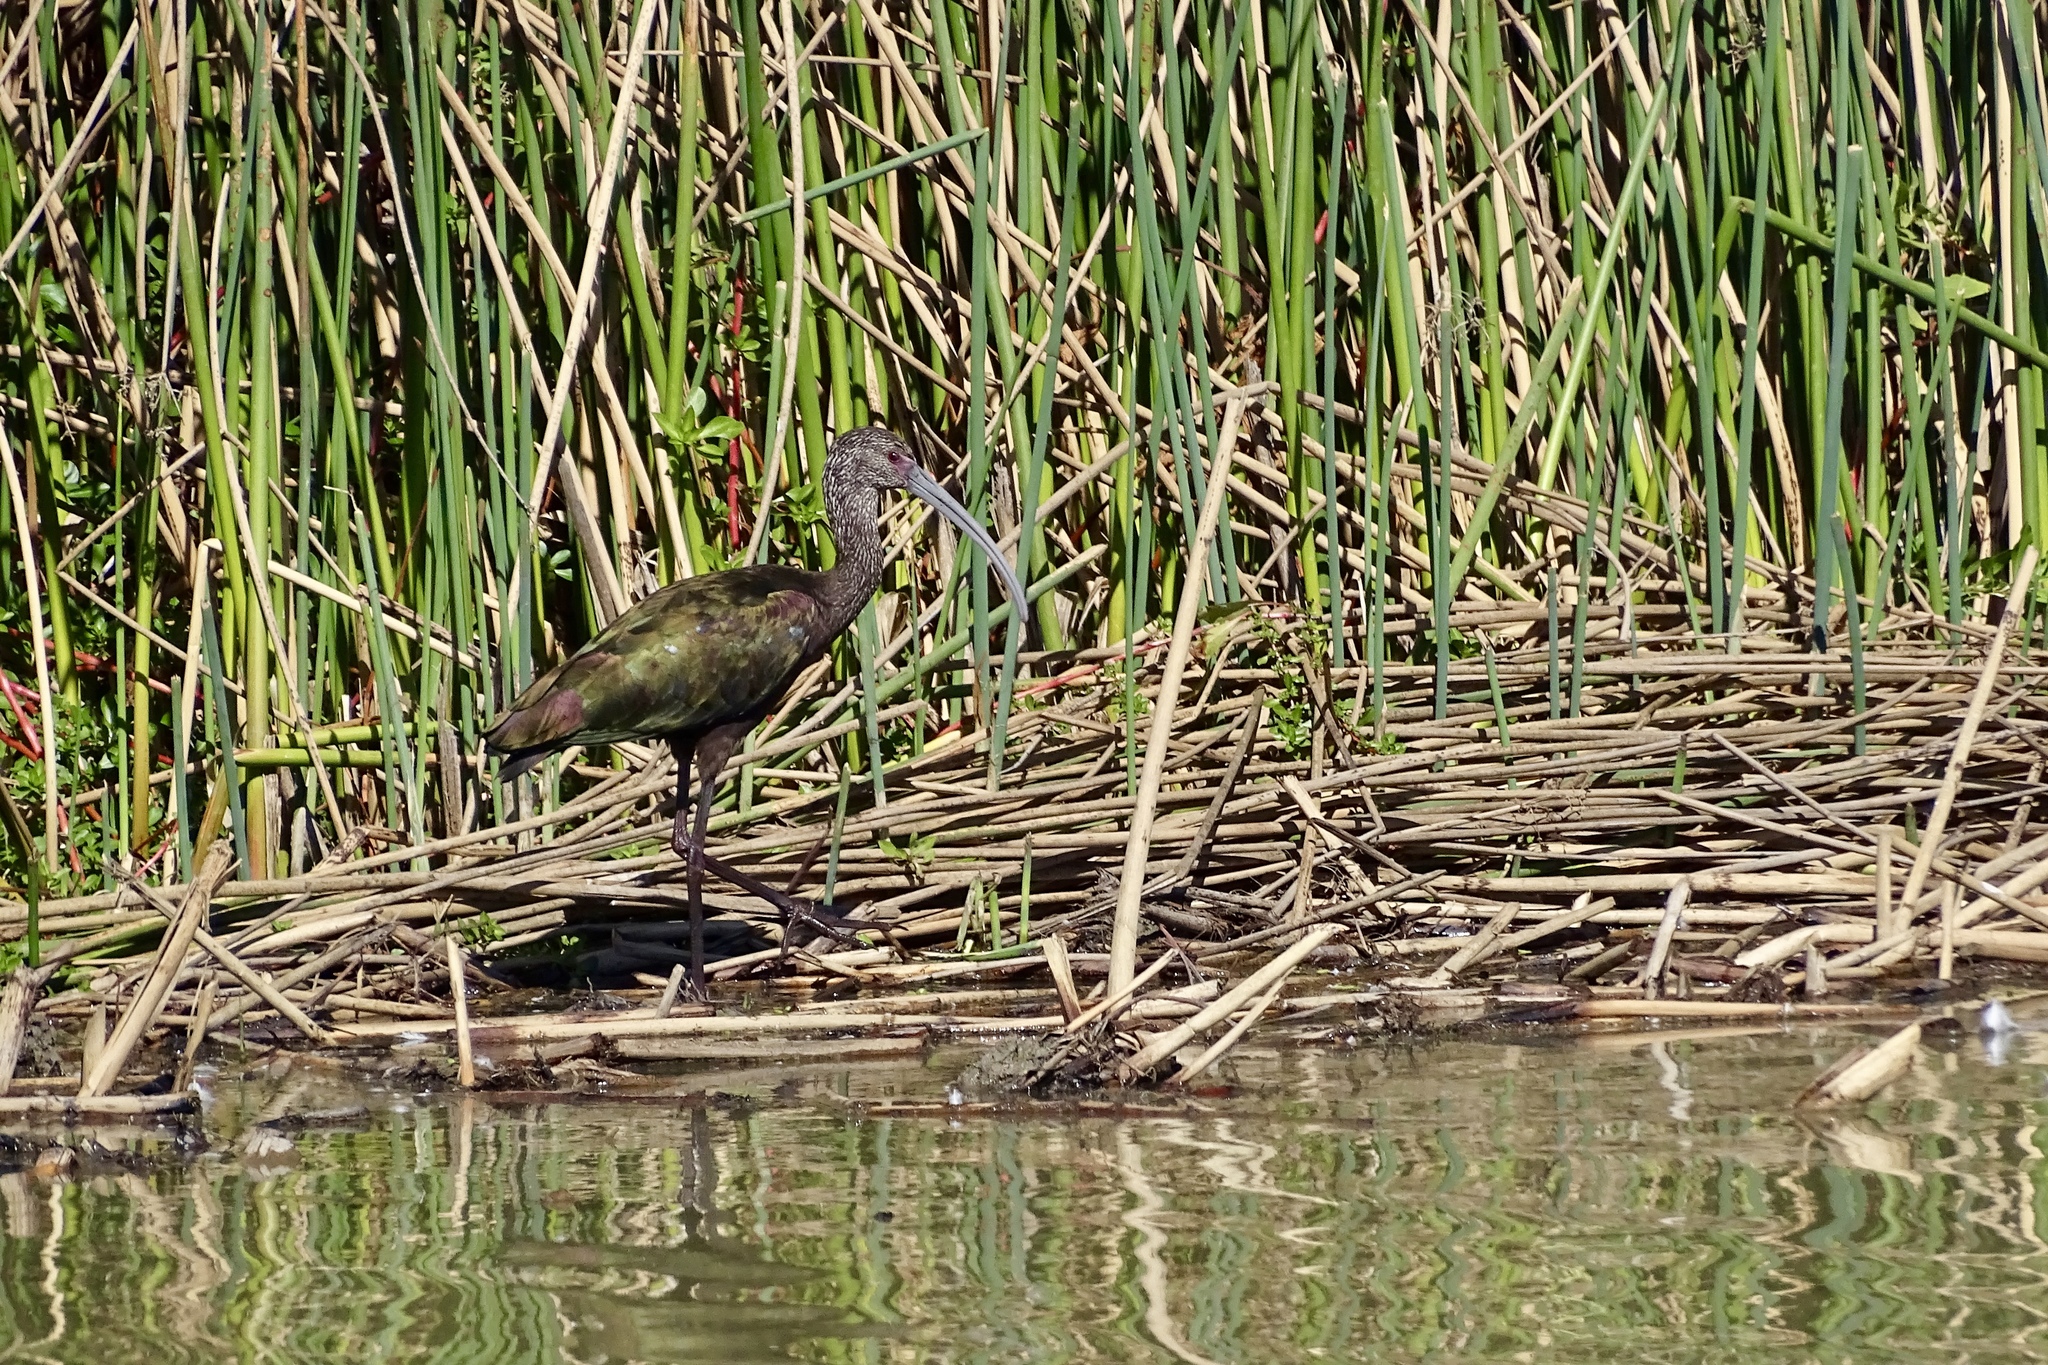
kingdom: Animalia
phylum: Chordata
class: Aves
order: Pelecaniformes
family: Threskiornithidae
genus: Plegadis
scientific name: Plegadis chihi
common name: White-faced ibis
